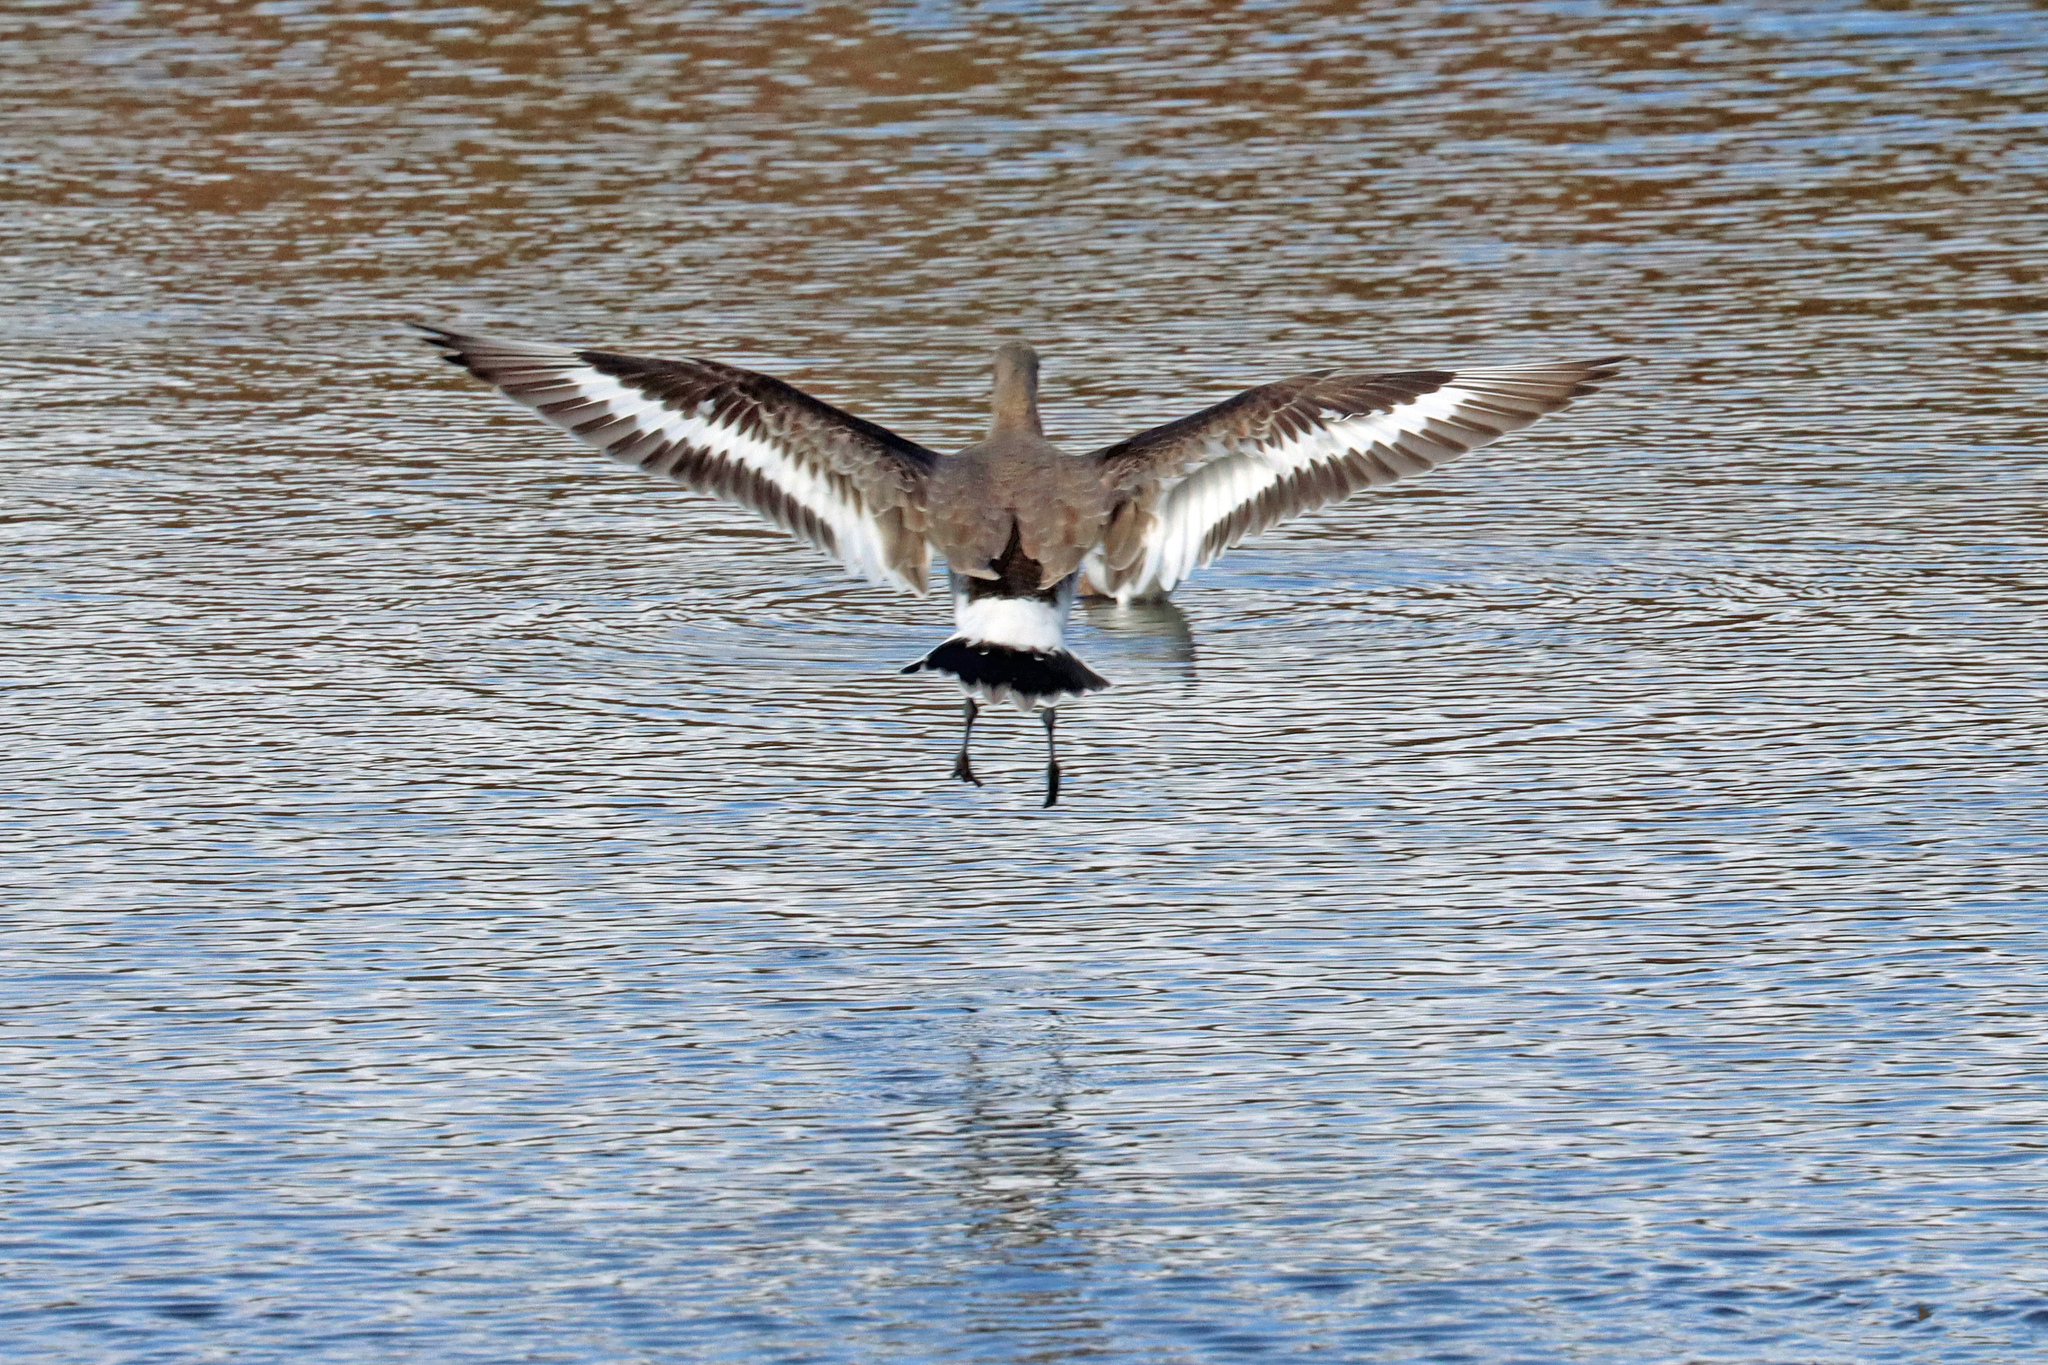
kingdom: Animalia
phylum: Chordata
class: Aves
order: Charadriiformes
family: Scolopacidae
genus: Limosa
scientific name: Limosa limosa
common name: Black-tailed godwit
